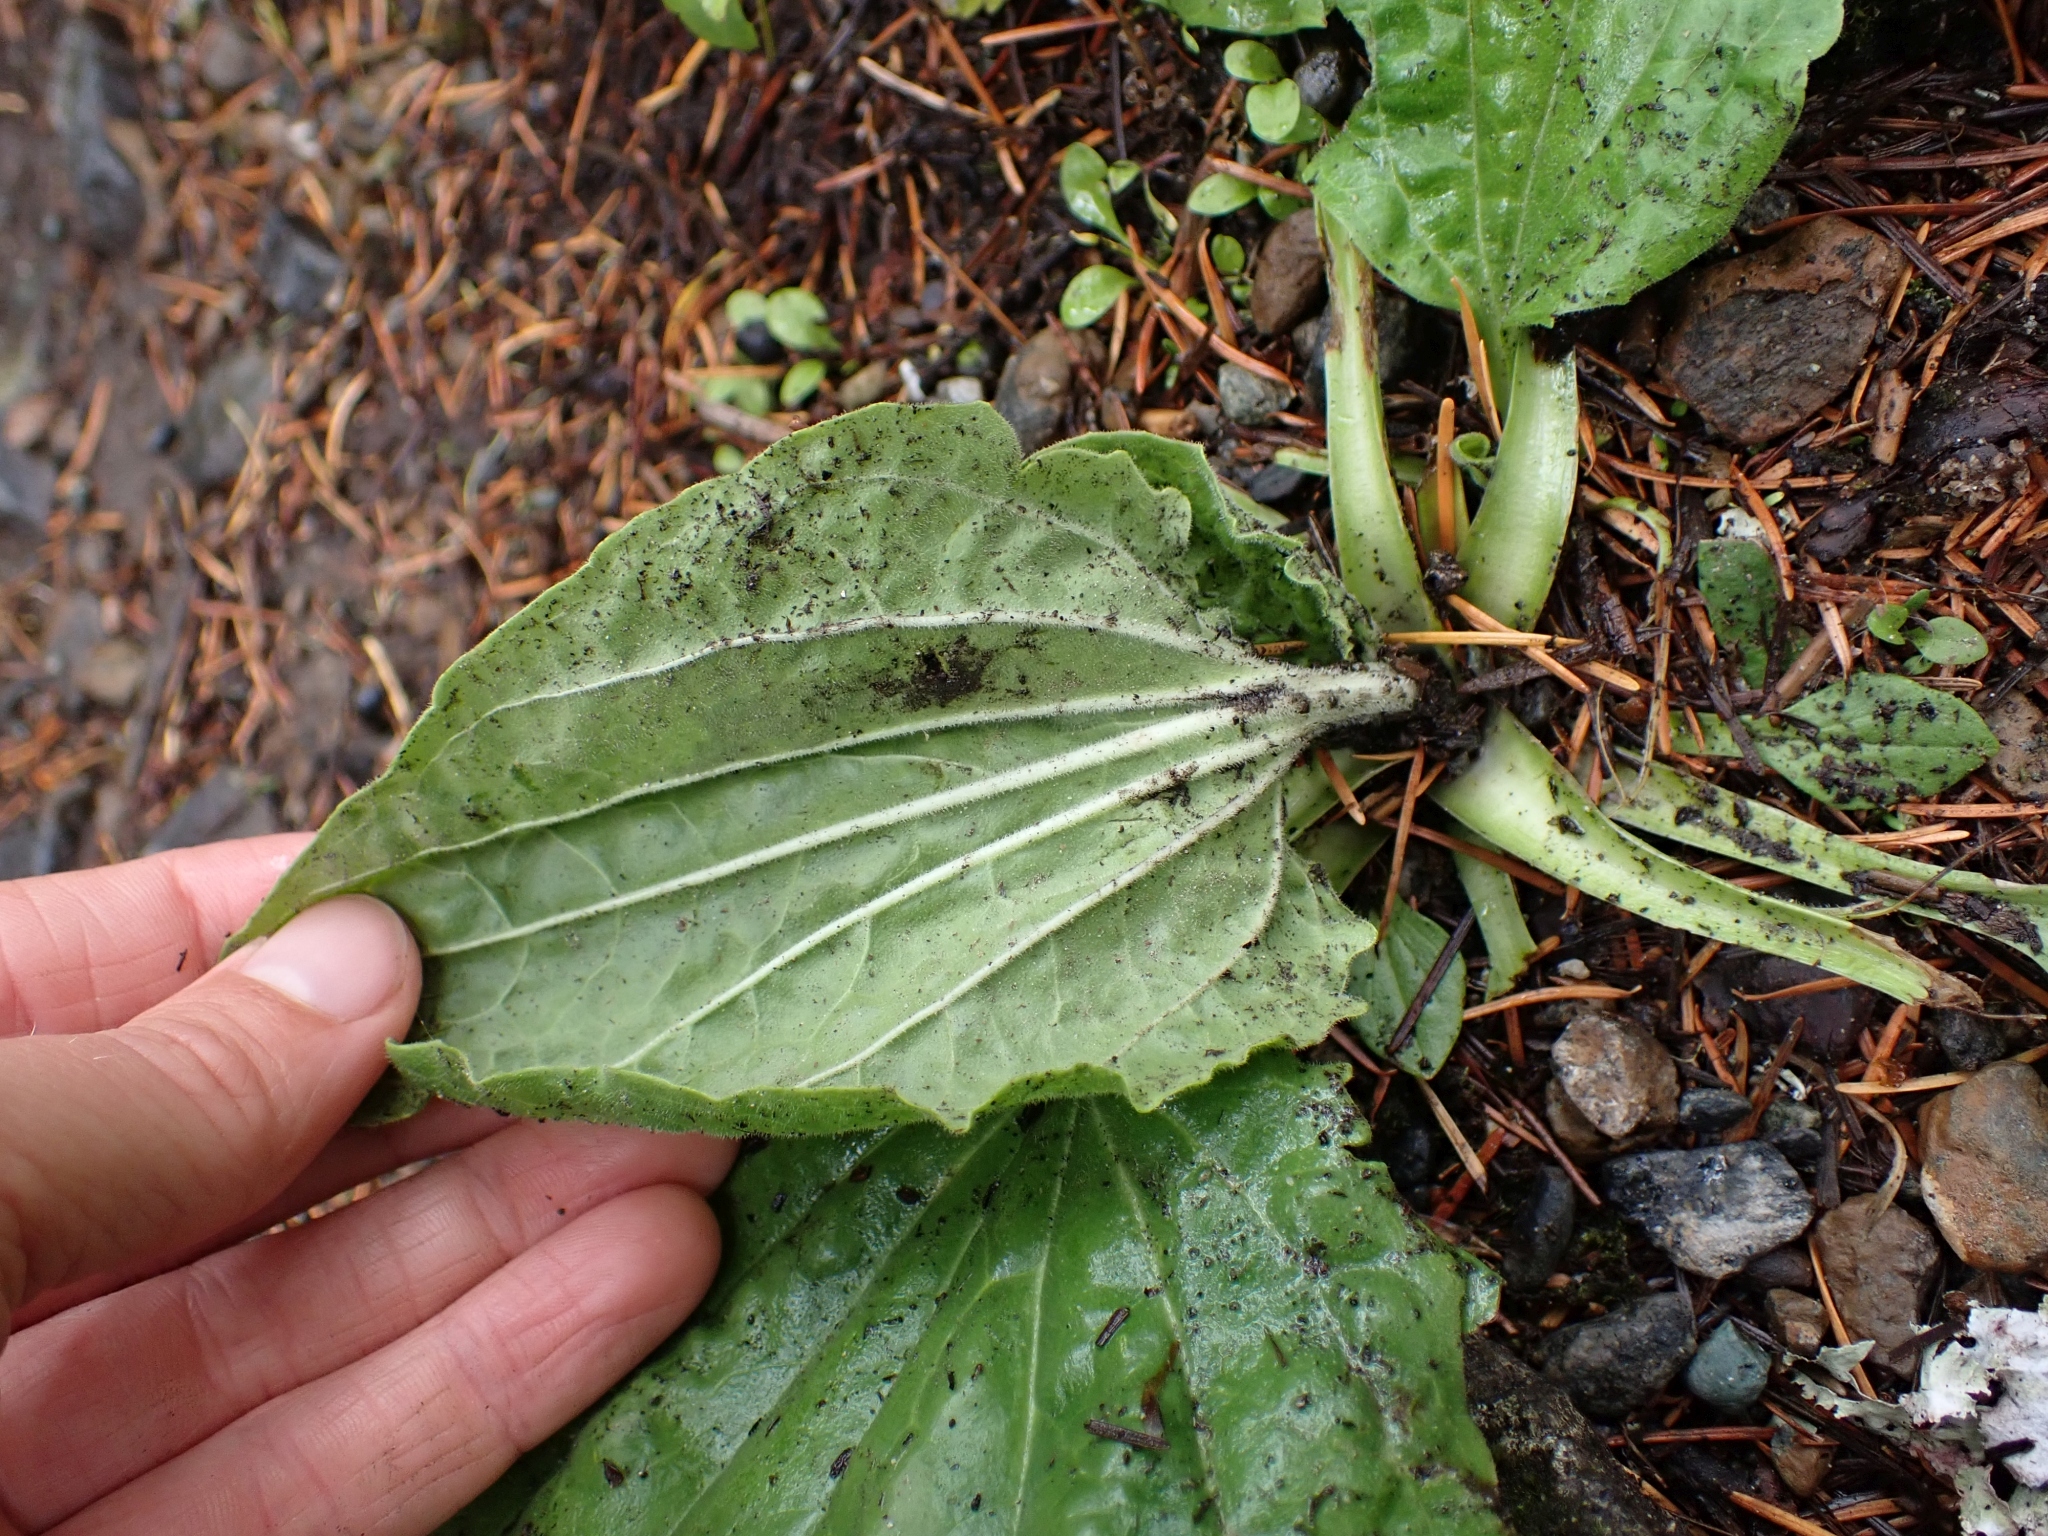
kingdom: Plantae
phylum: Tracheophyta
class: Magnoliopsida
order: Lamiales
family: Plantaginaceae
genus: Plantago
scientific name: Plantago major
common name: Common plantain
